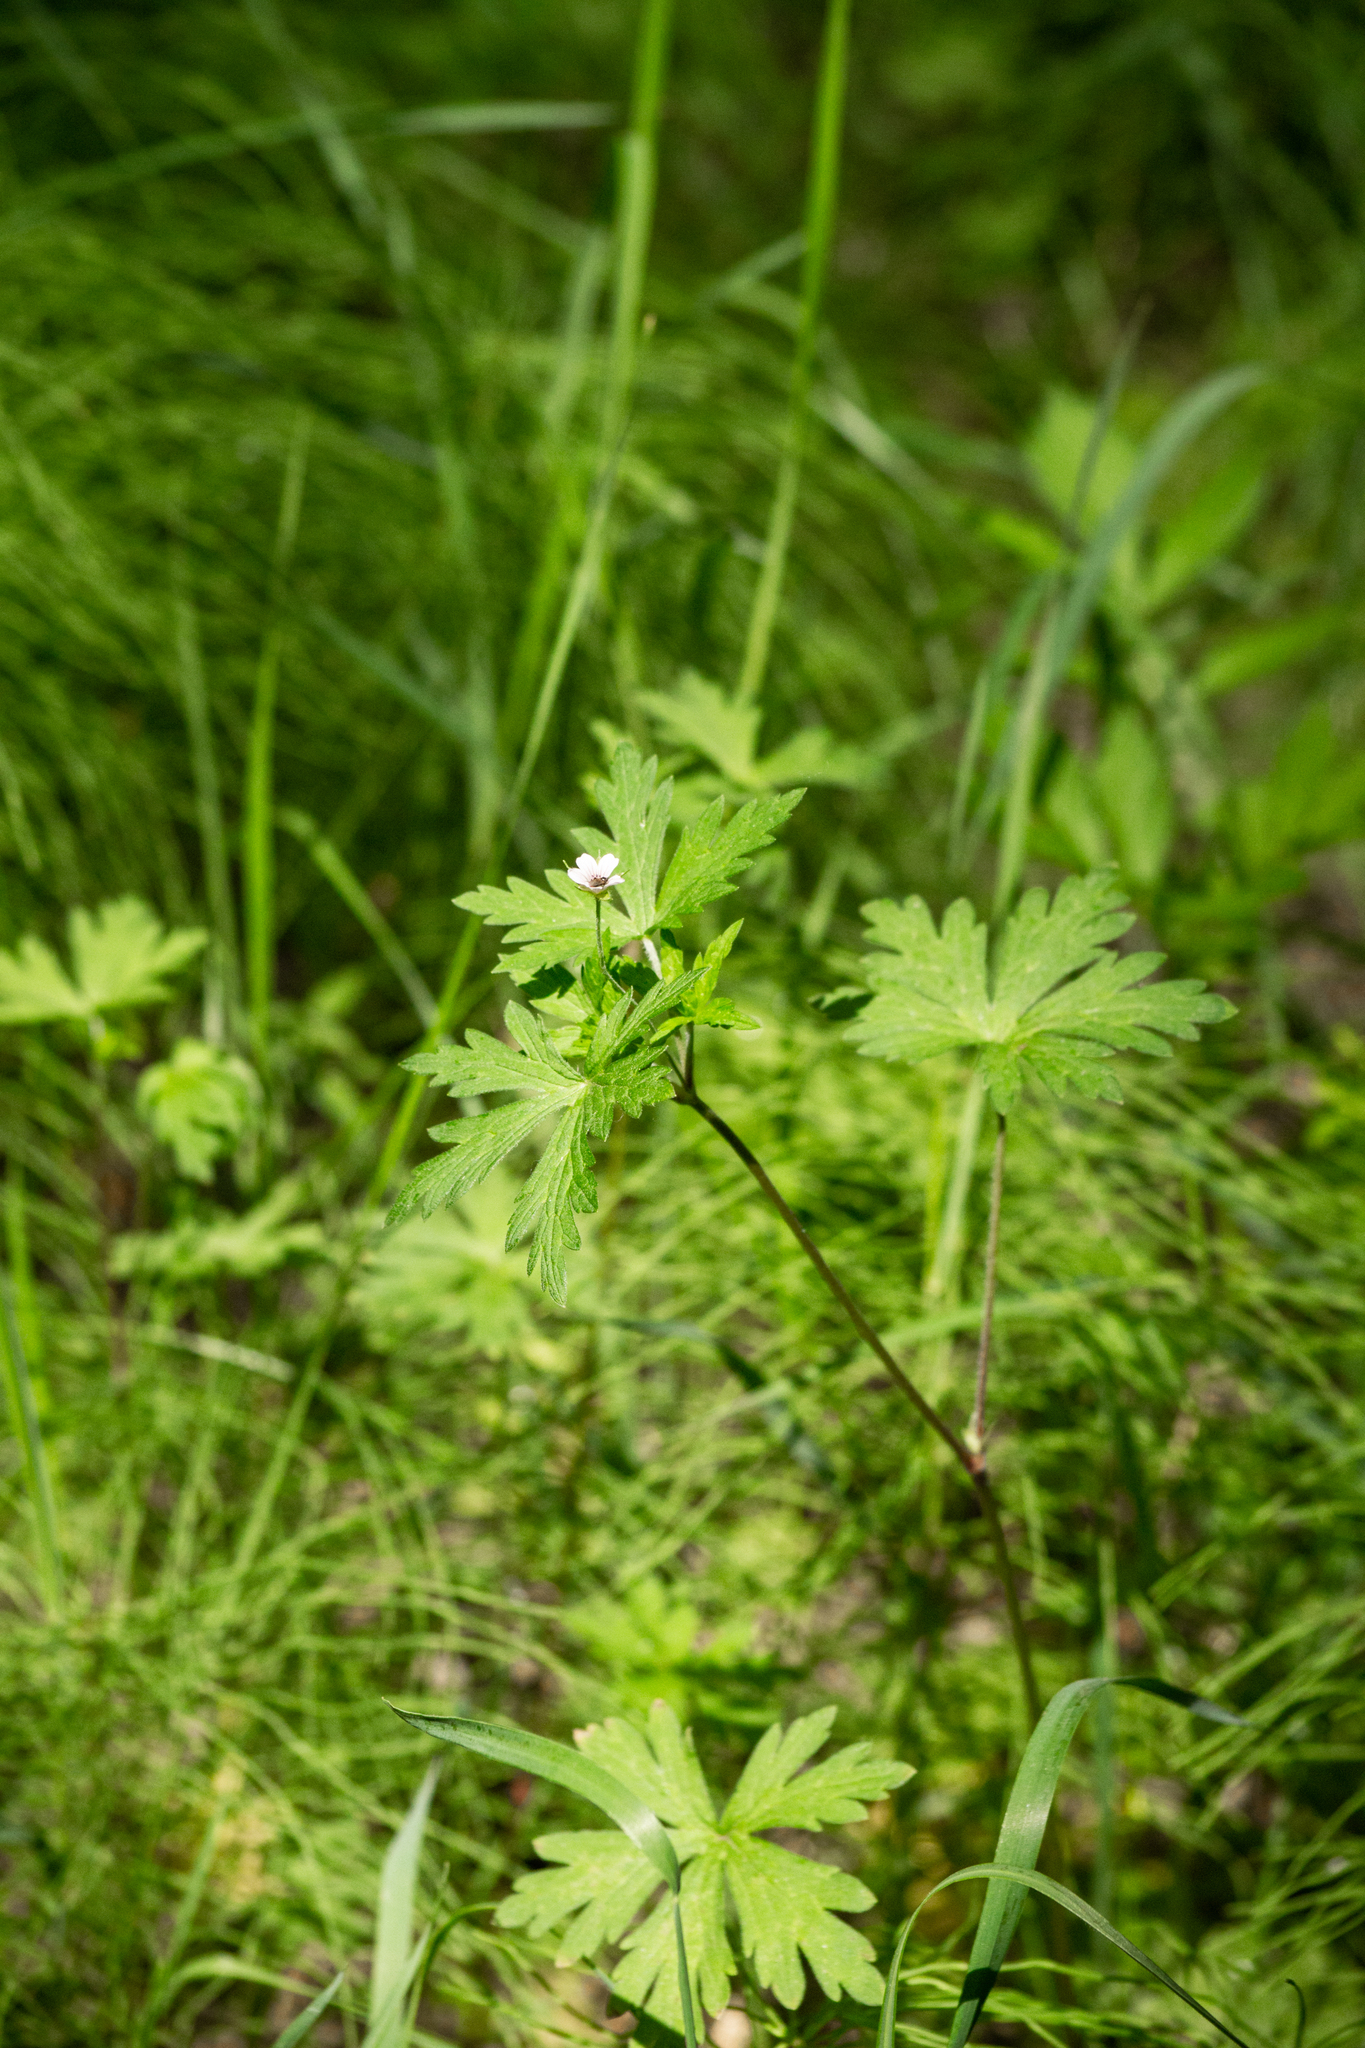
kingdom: Plantae
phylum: Tracheophyta
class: Magnoliopsida
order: Geraniales
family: Geraniaceae
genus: Geranium
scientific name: Geranium sibiricum
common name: Siberian crane's-bill
